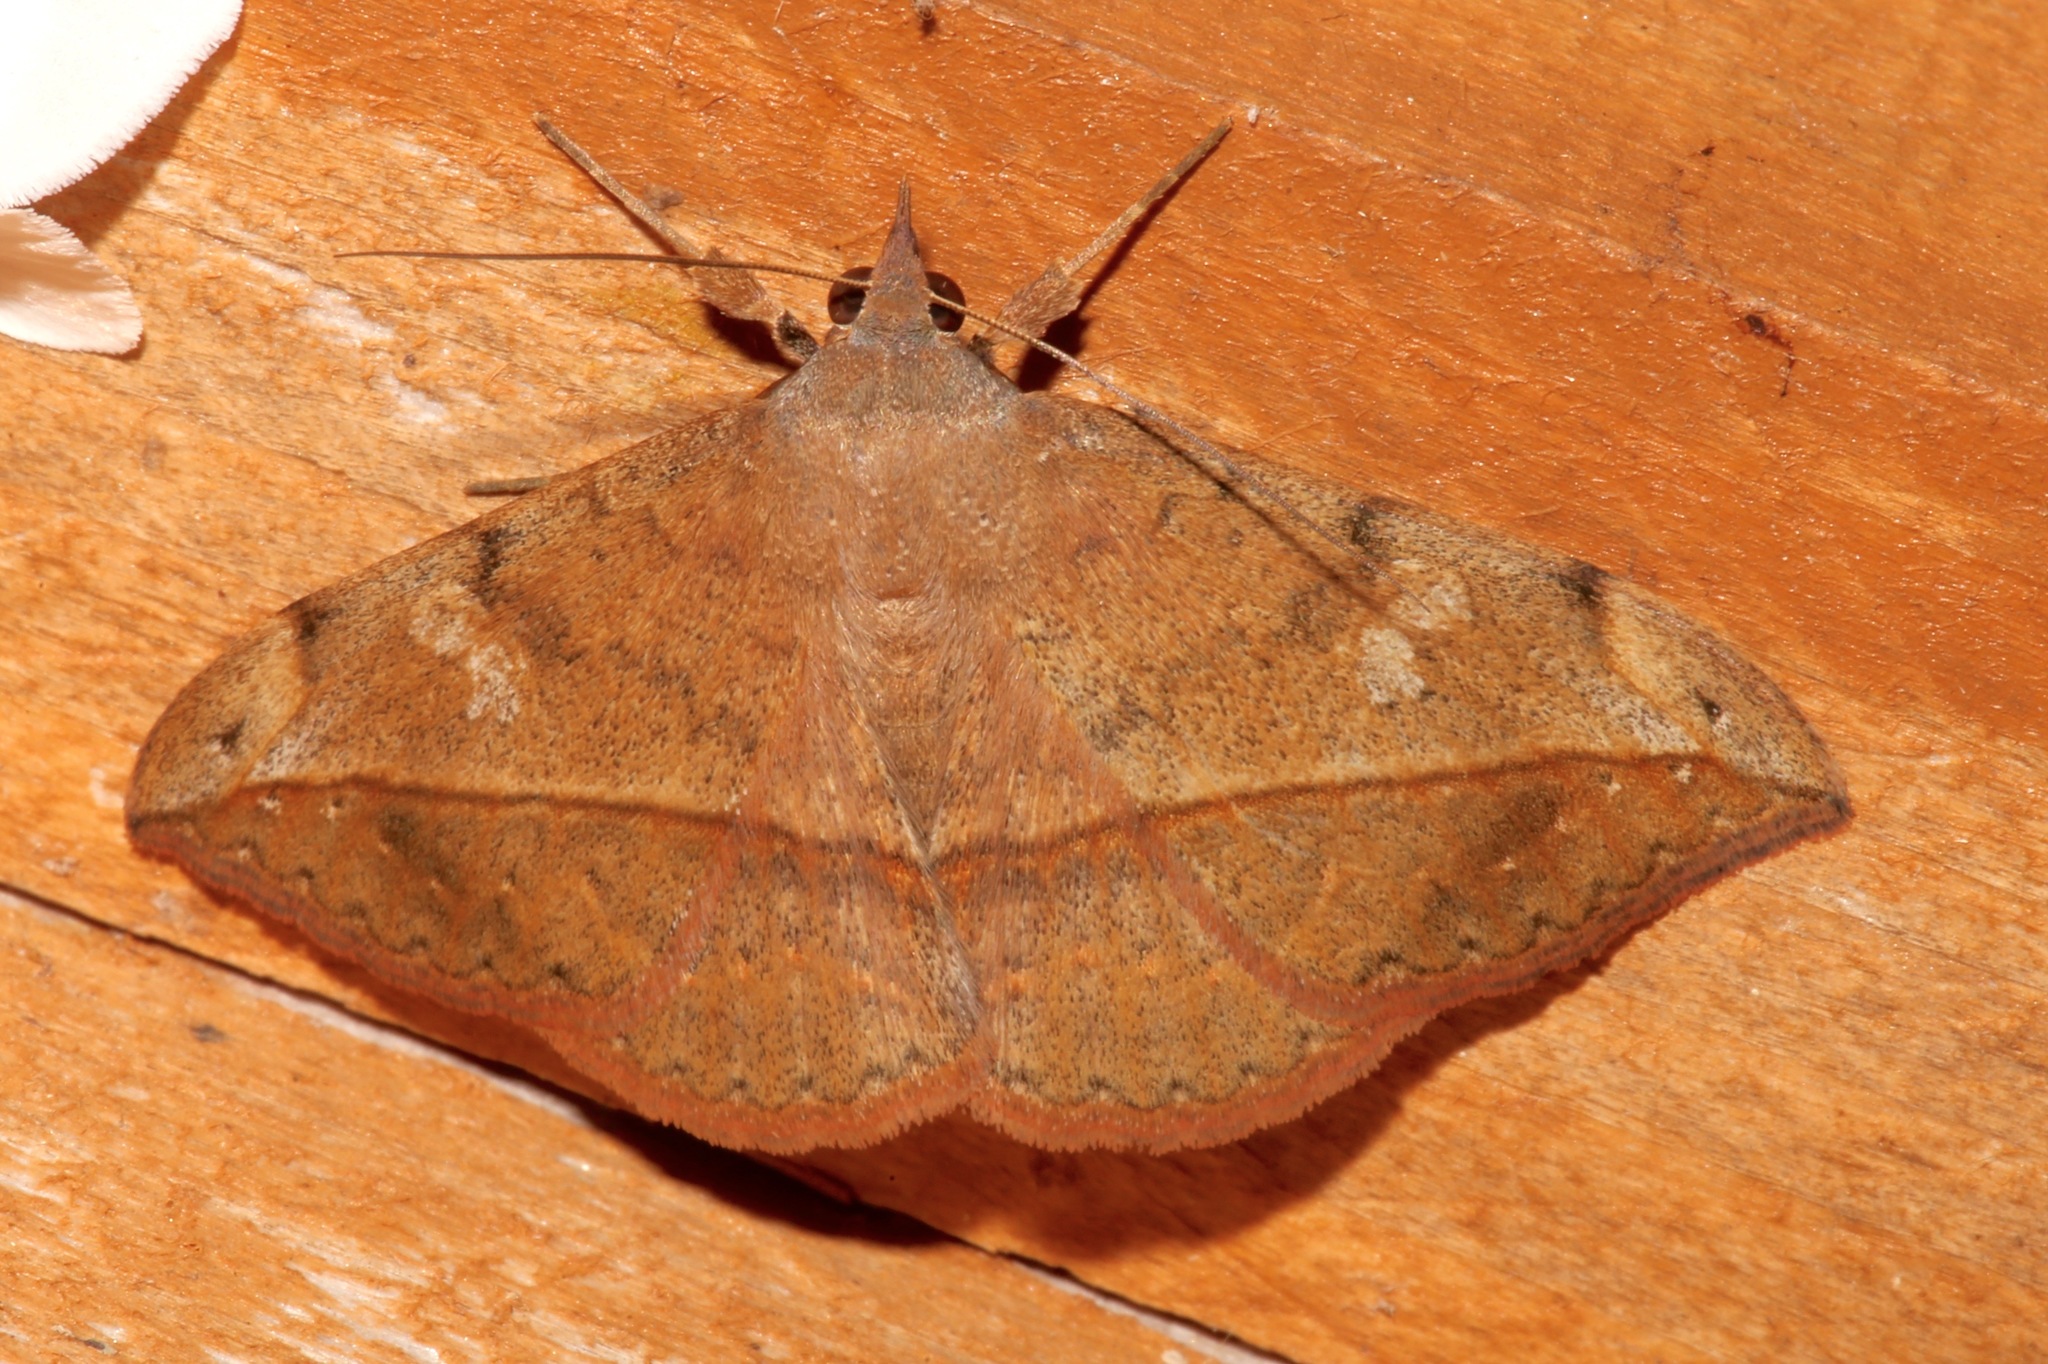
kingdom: Animalia
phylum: Arthropoda
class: Insecta
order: Lepidoptera
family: Erebidae
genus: Anticarsia
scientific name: Anticarsia gemmatalis
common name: Cutworm moth
